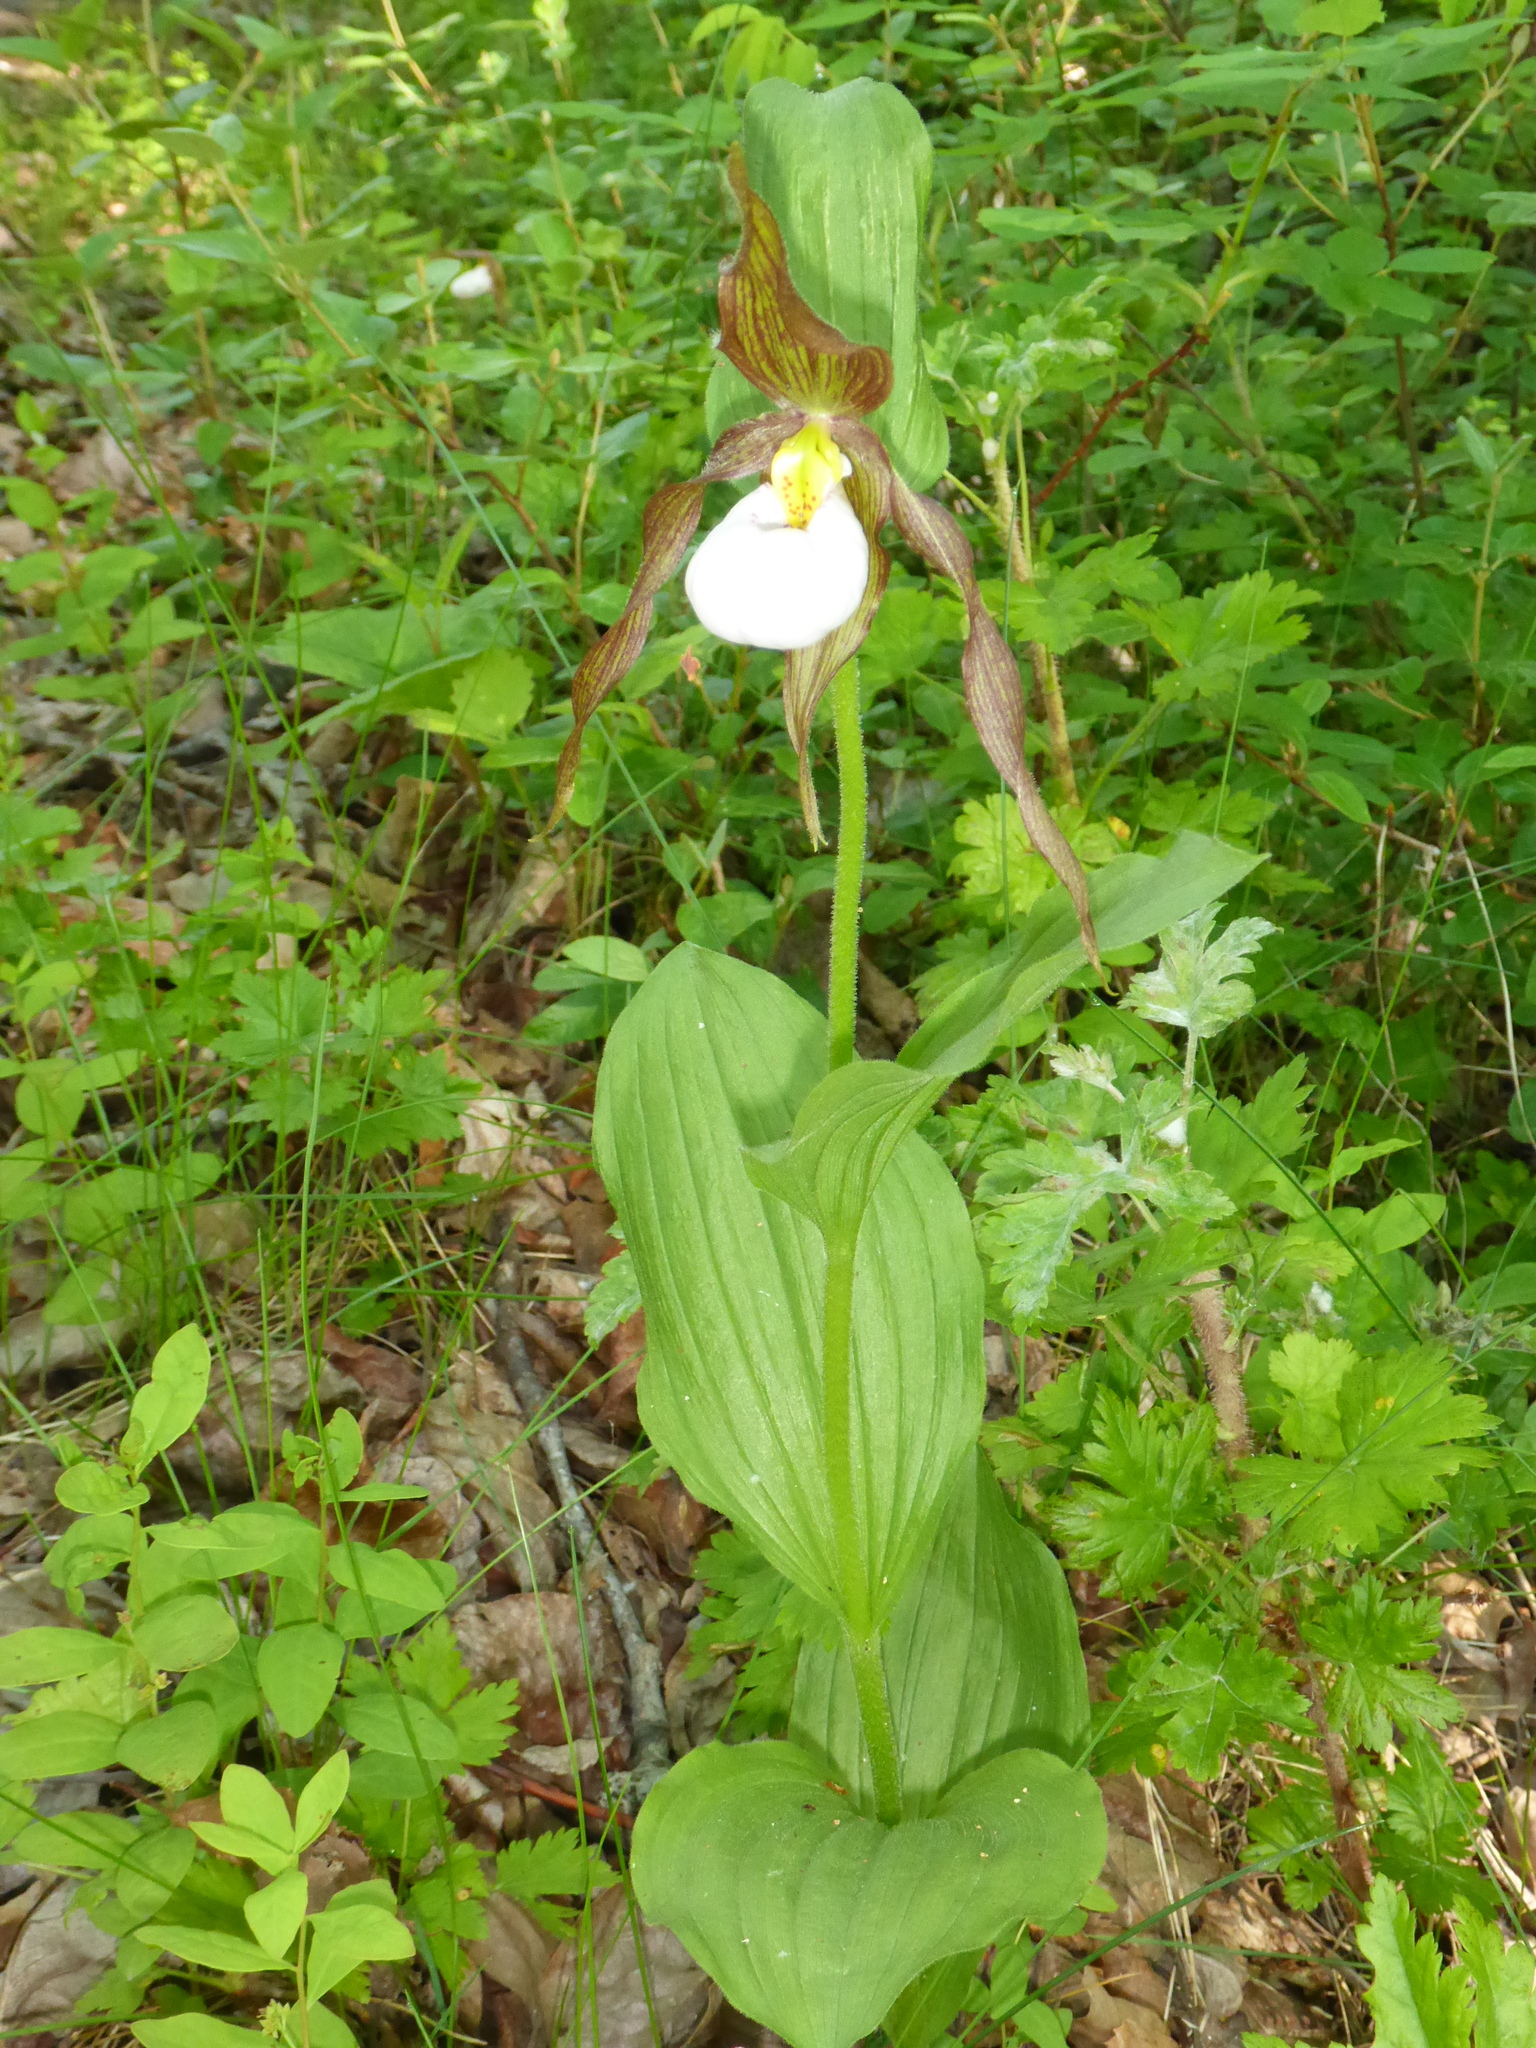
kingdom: Plantae
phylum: Tracheophyta
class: Liliopsida
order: Asparagales
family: Orchidaceae
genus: Cypripedium
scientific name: Cypripedium montanum
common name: Mountain lady's-slipper
